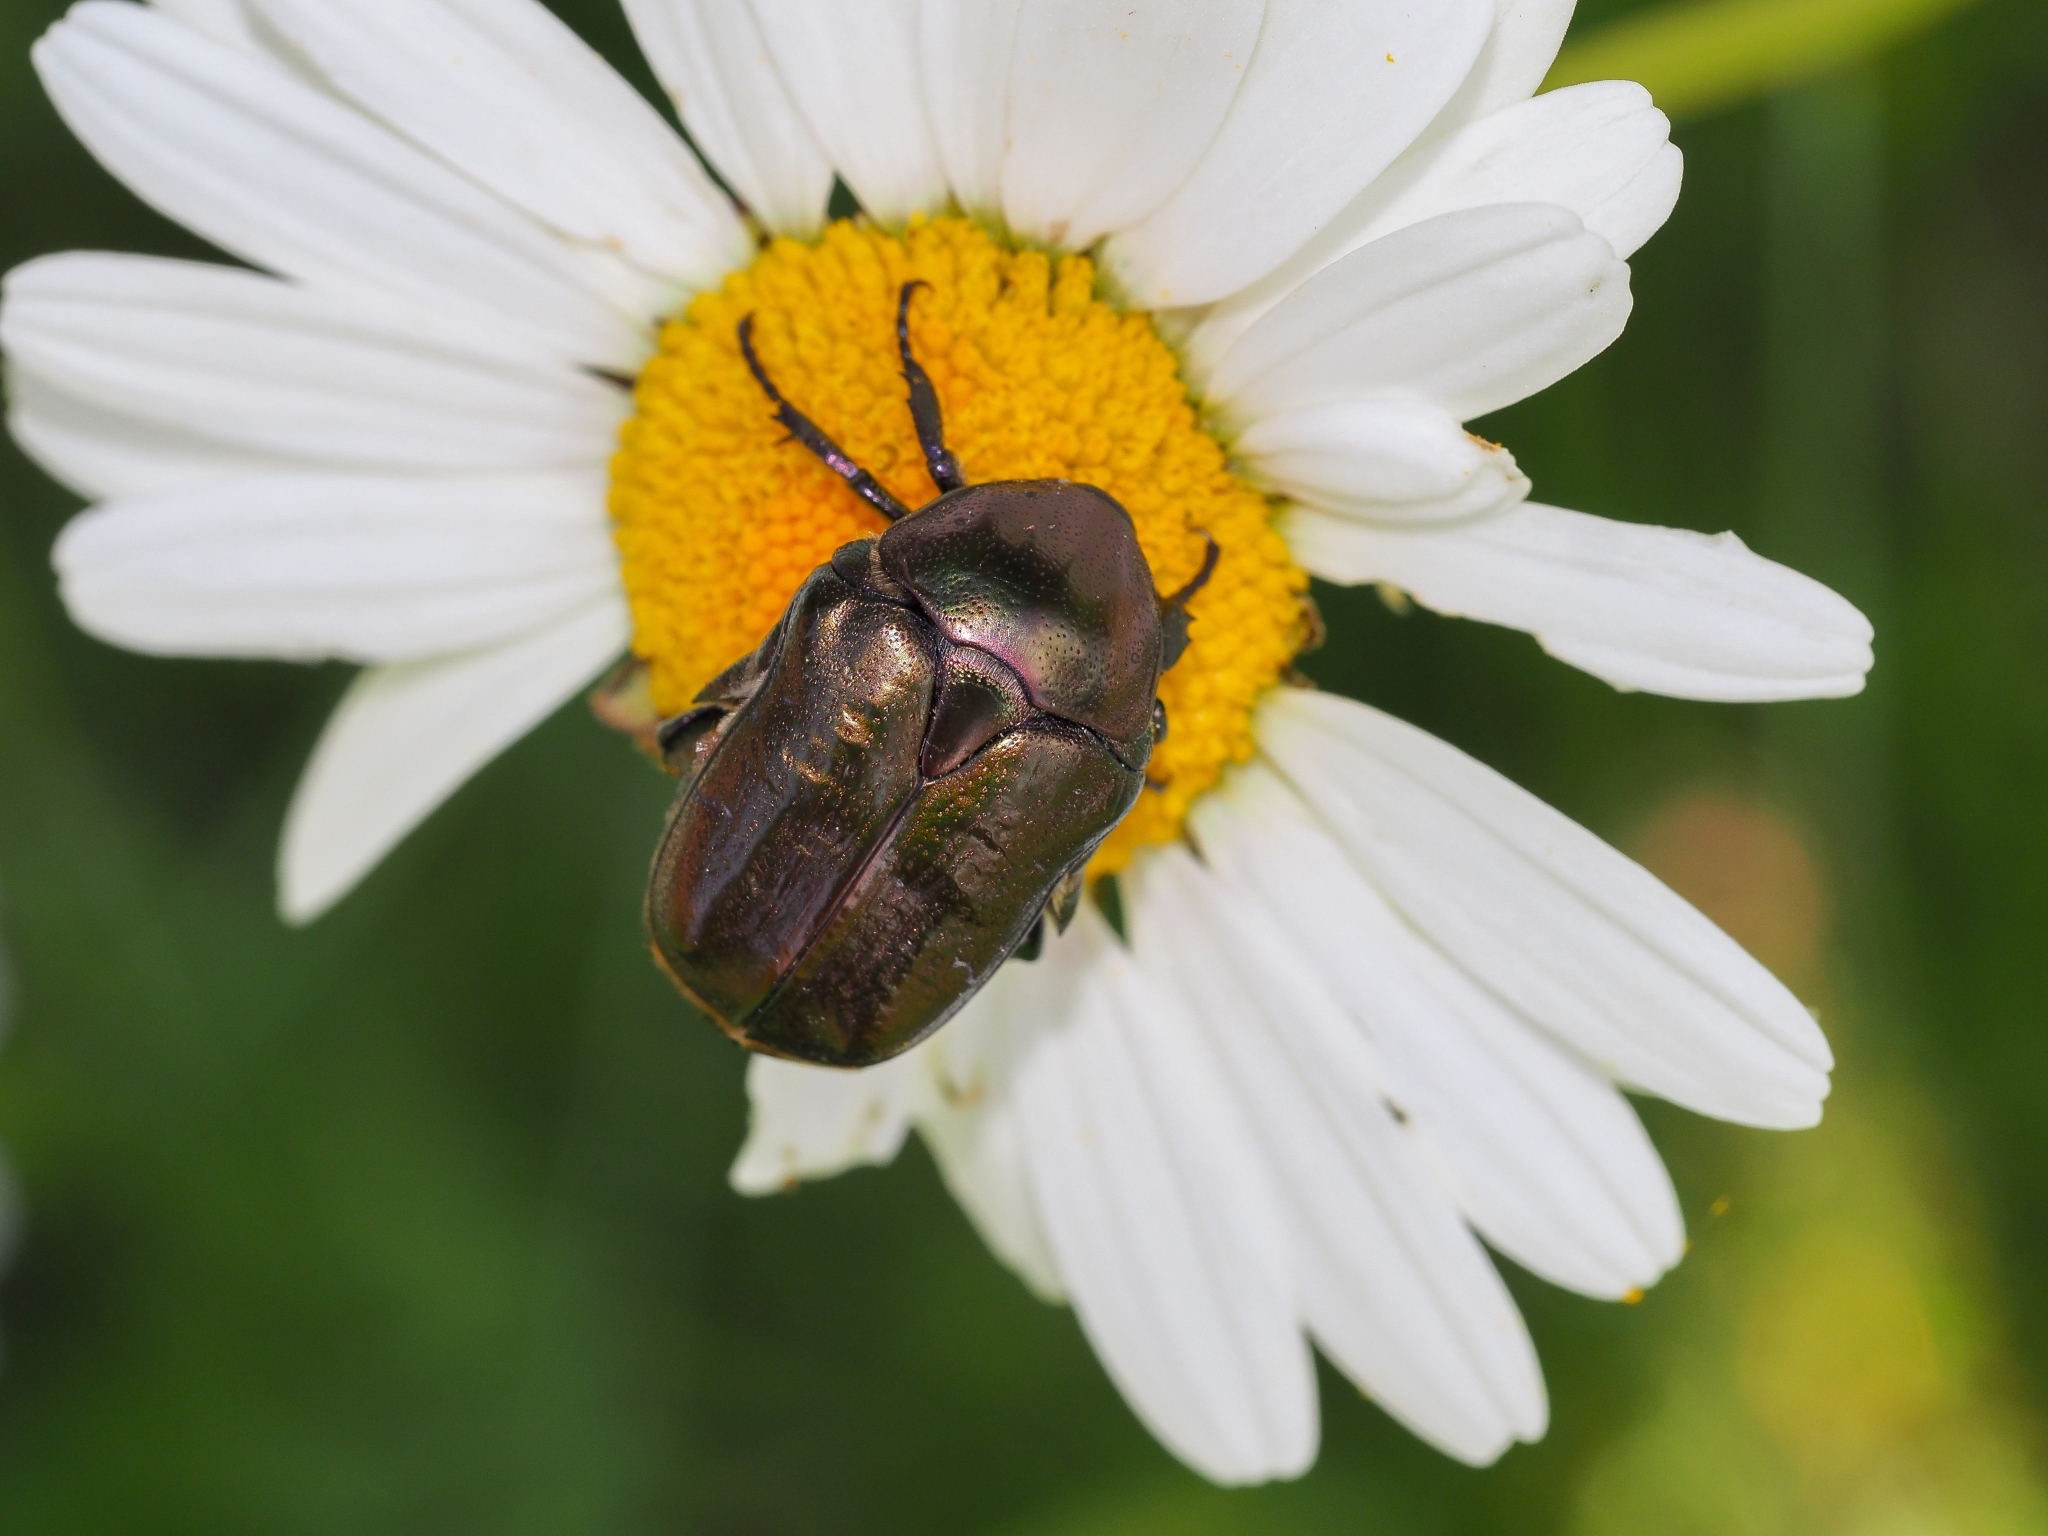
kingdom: Animalia
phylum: Arthropoda
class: Insecta
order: Coleoptera
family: Scarabaeidae
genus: Protaetia
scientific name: Protaetia cuprea
